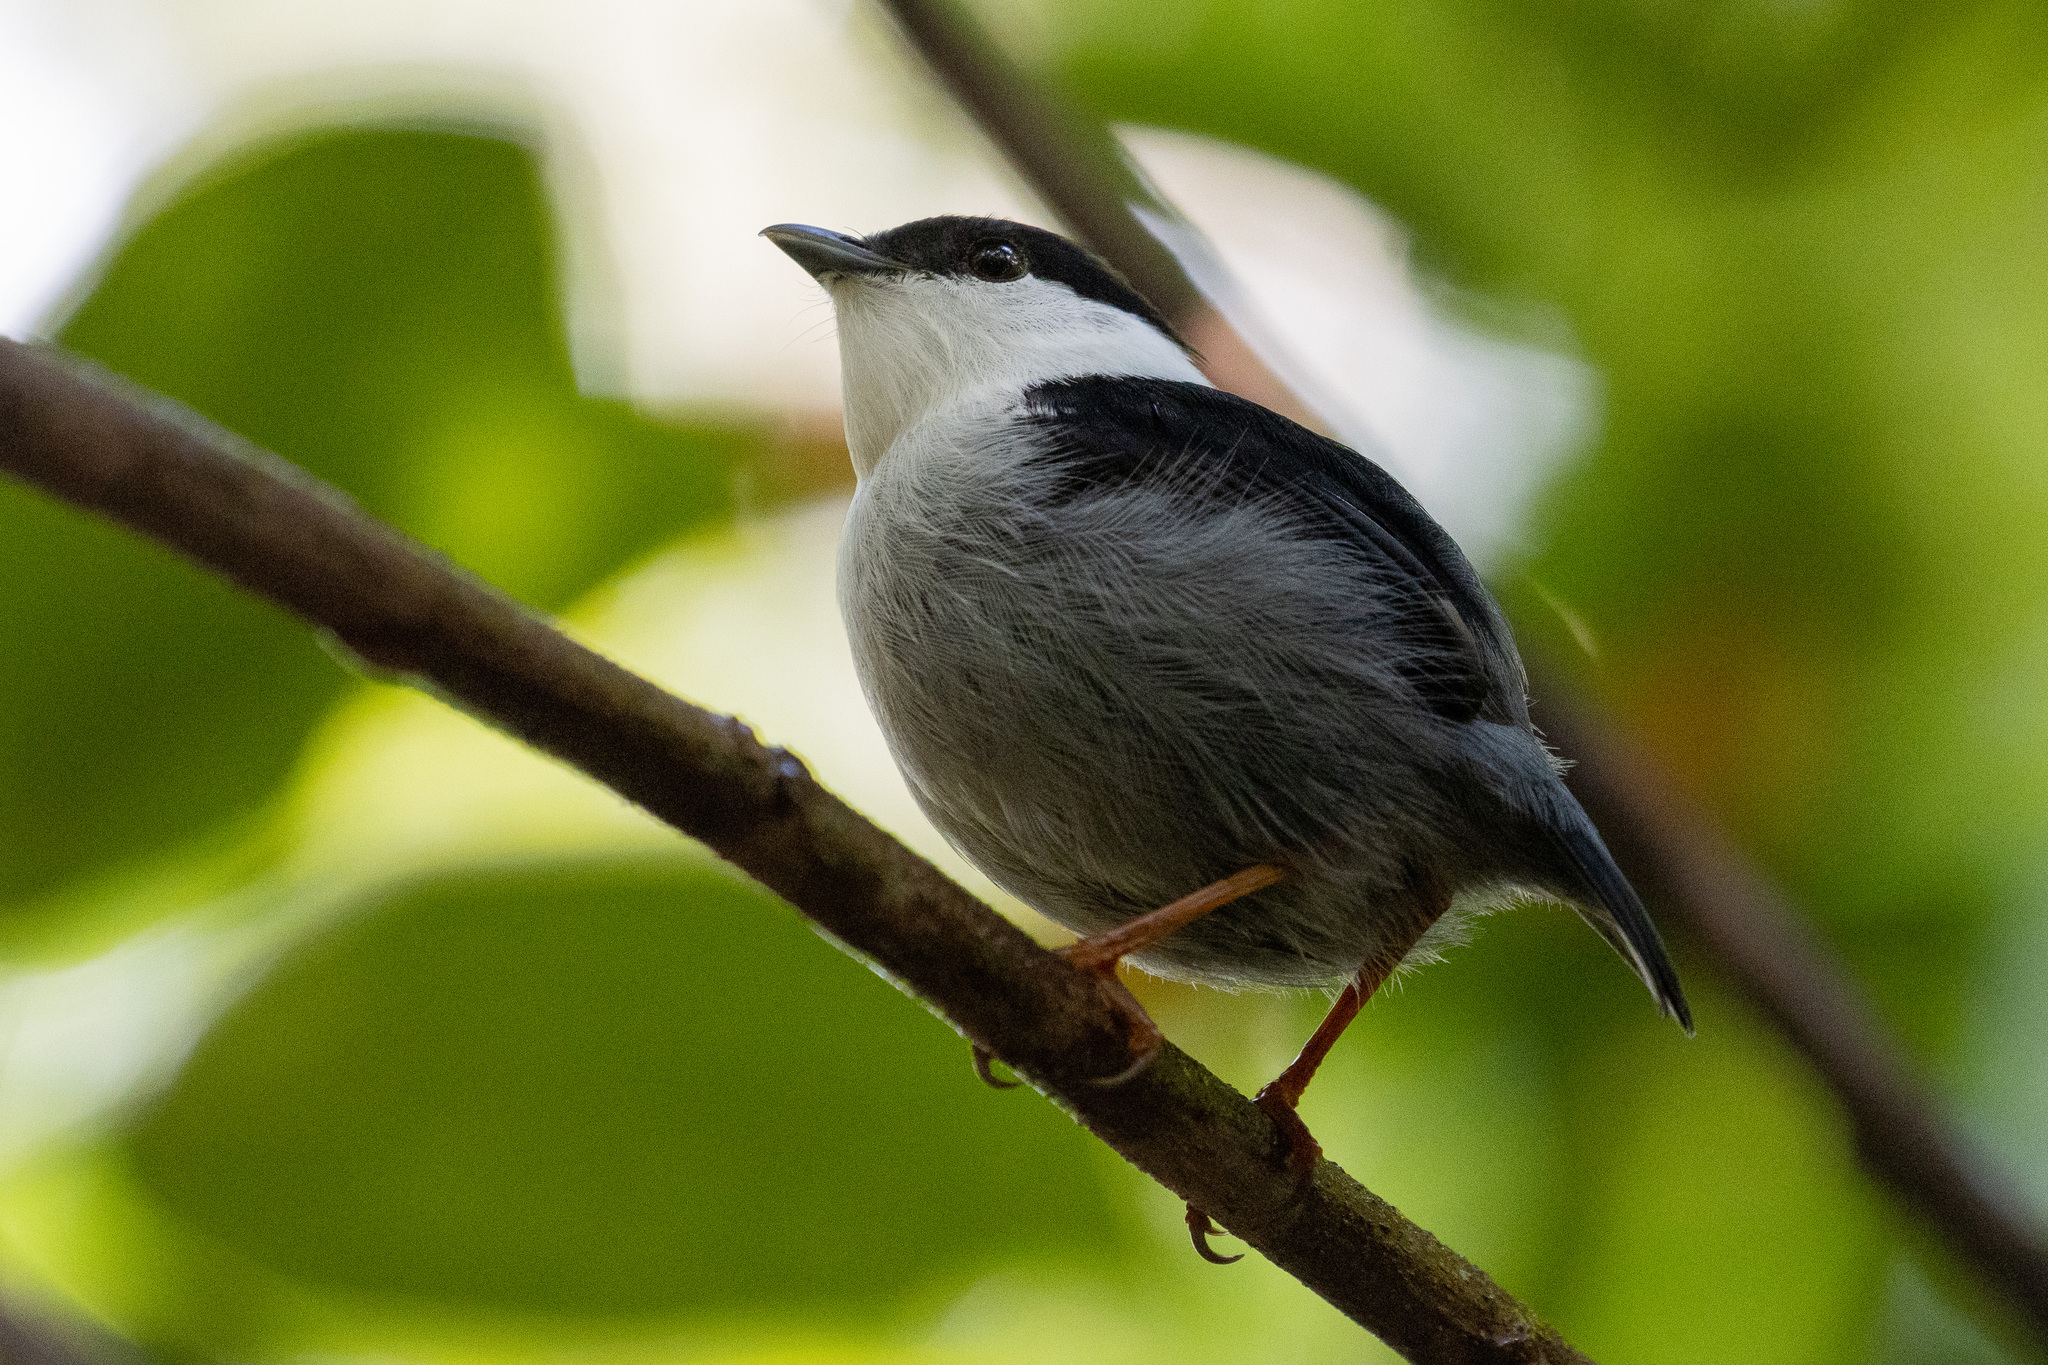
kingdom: Animalia
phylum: Chordata
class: Aves
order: Passeriformes
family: Pipridae
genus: Manacus
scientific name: Manacus manacus
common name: White-bearded manakin
